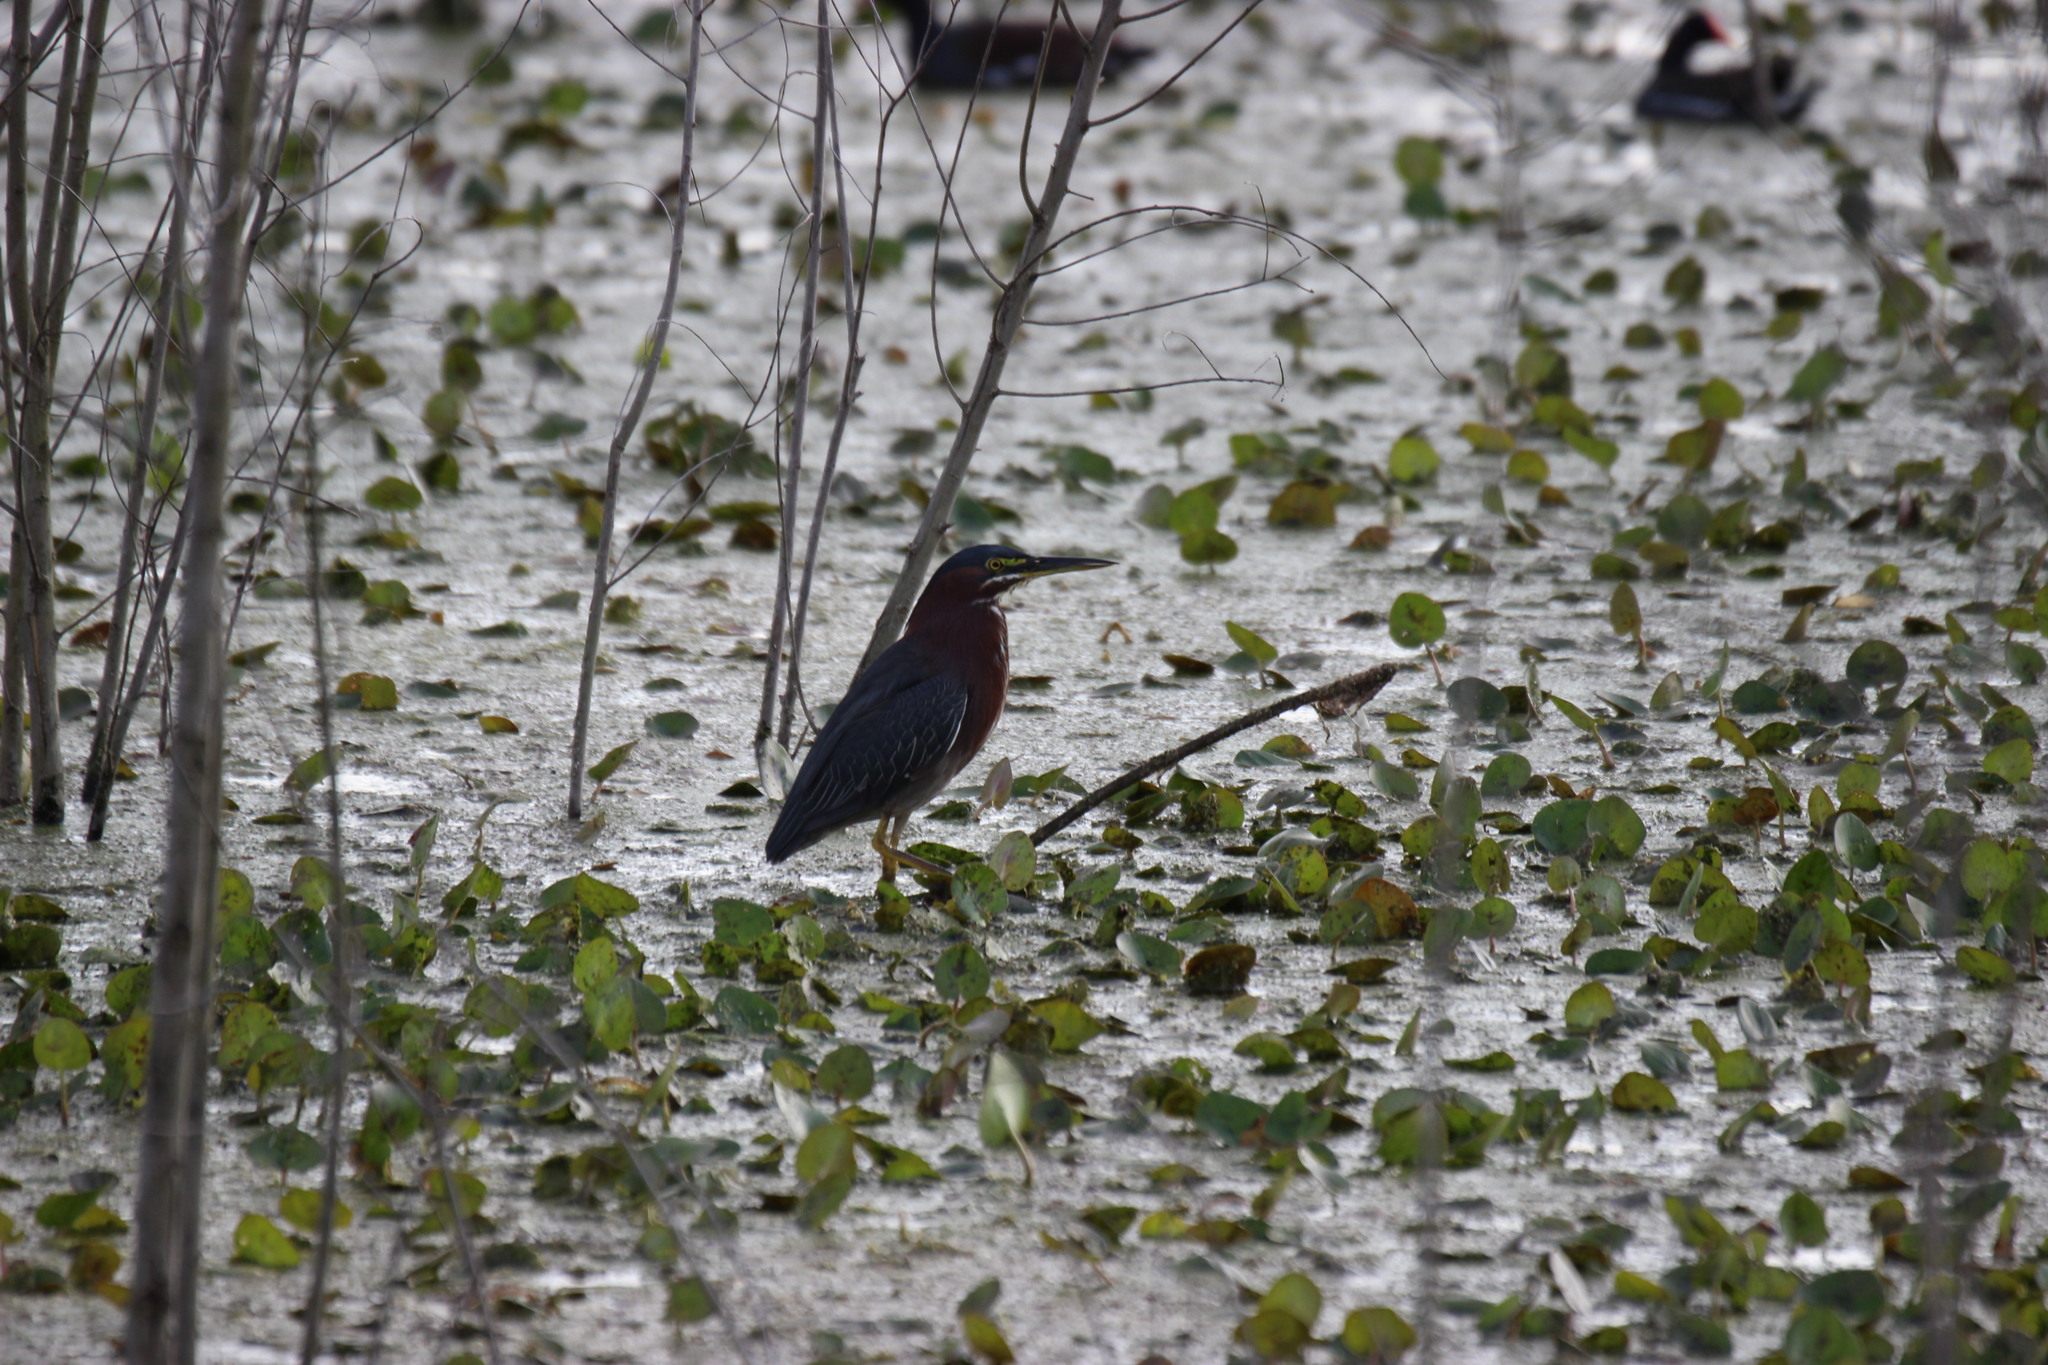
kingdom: Animalia
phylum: Chordata
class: Aves
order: Pelecaniformes
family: Ardeidae
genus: Butorides
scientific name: Butorides virescens
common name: Green heron
